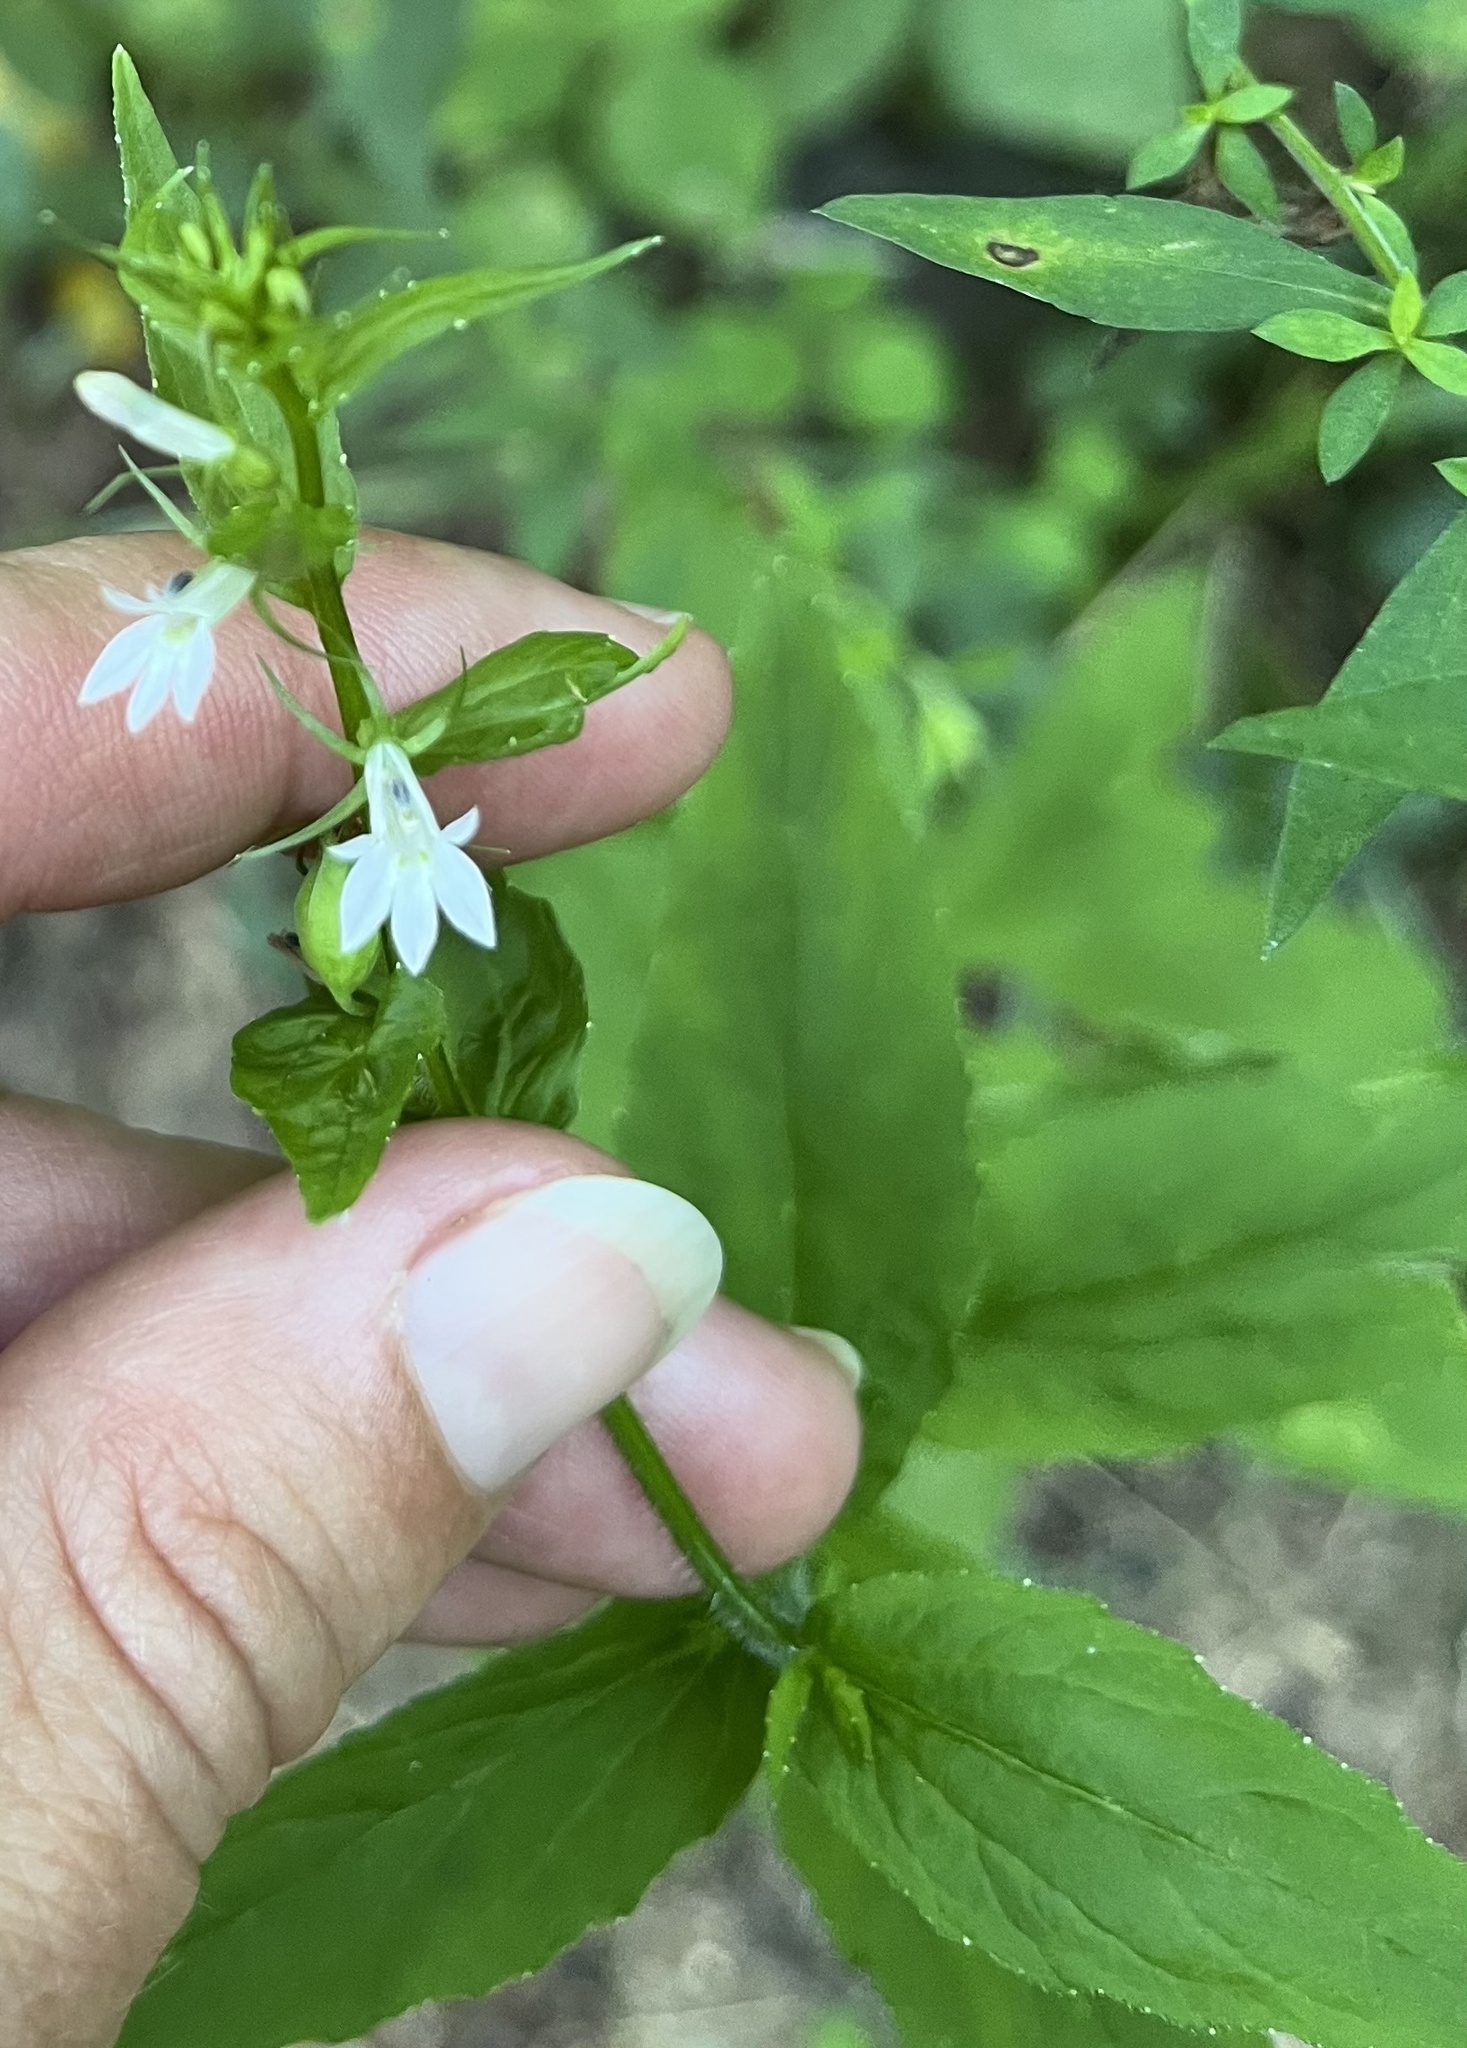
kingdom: Plantae
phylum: Tracheophyta
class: Magnoliopsida
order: Asterales
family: Campanulaceae
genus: Lobelia
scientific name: Lobelia inflata
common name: Indian tobacco
